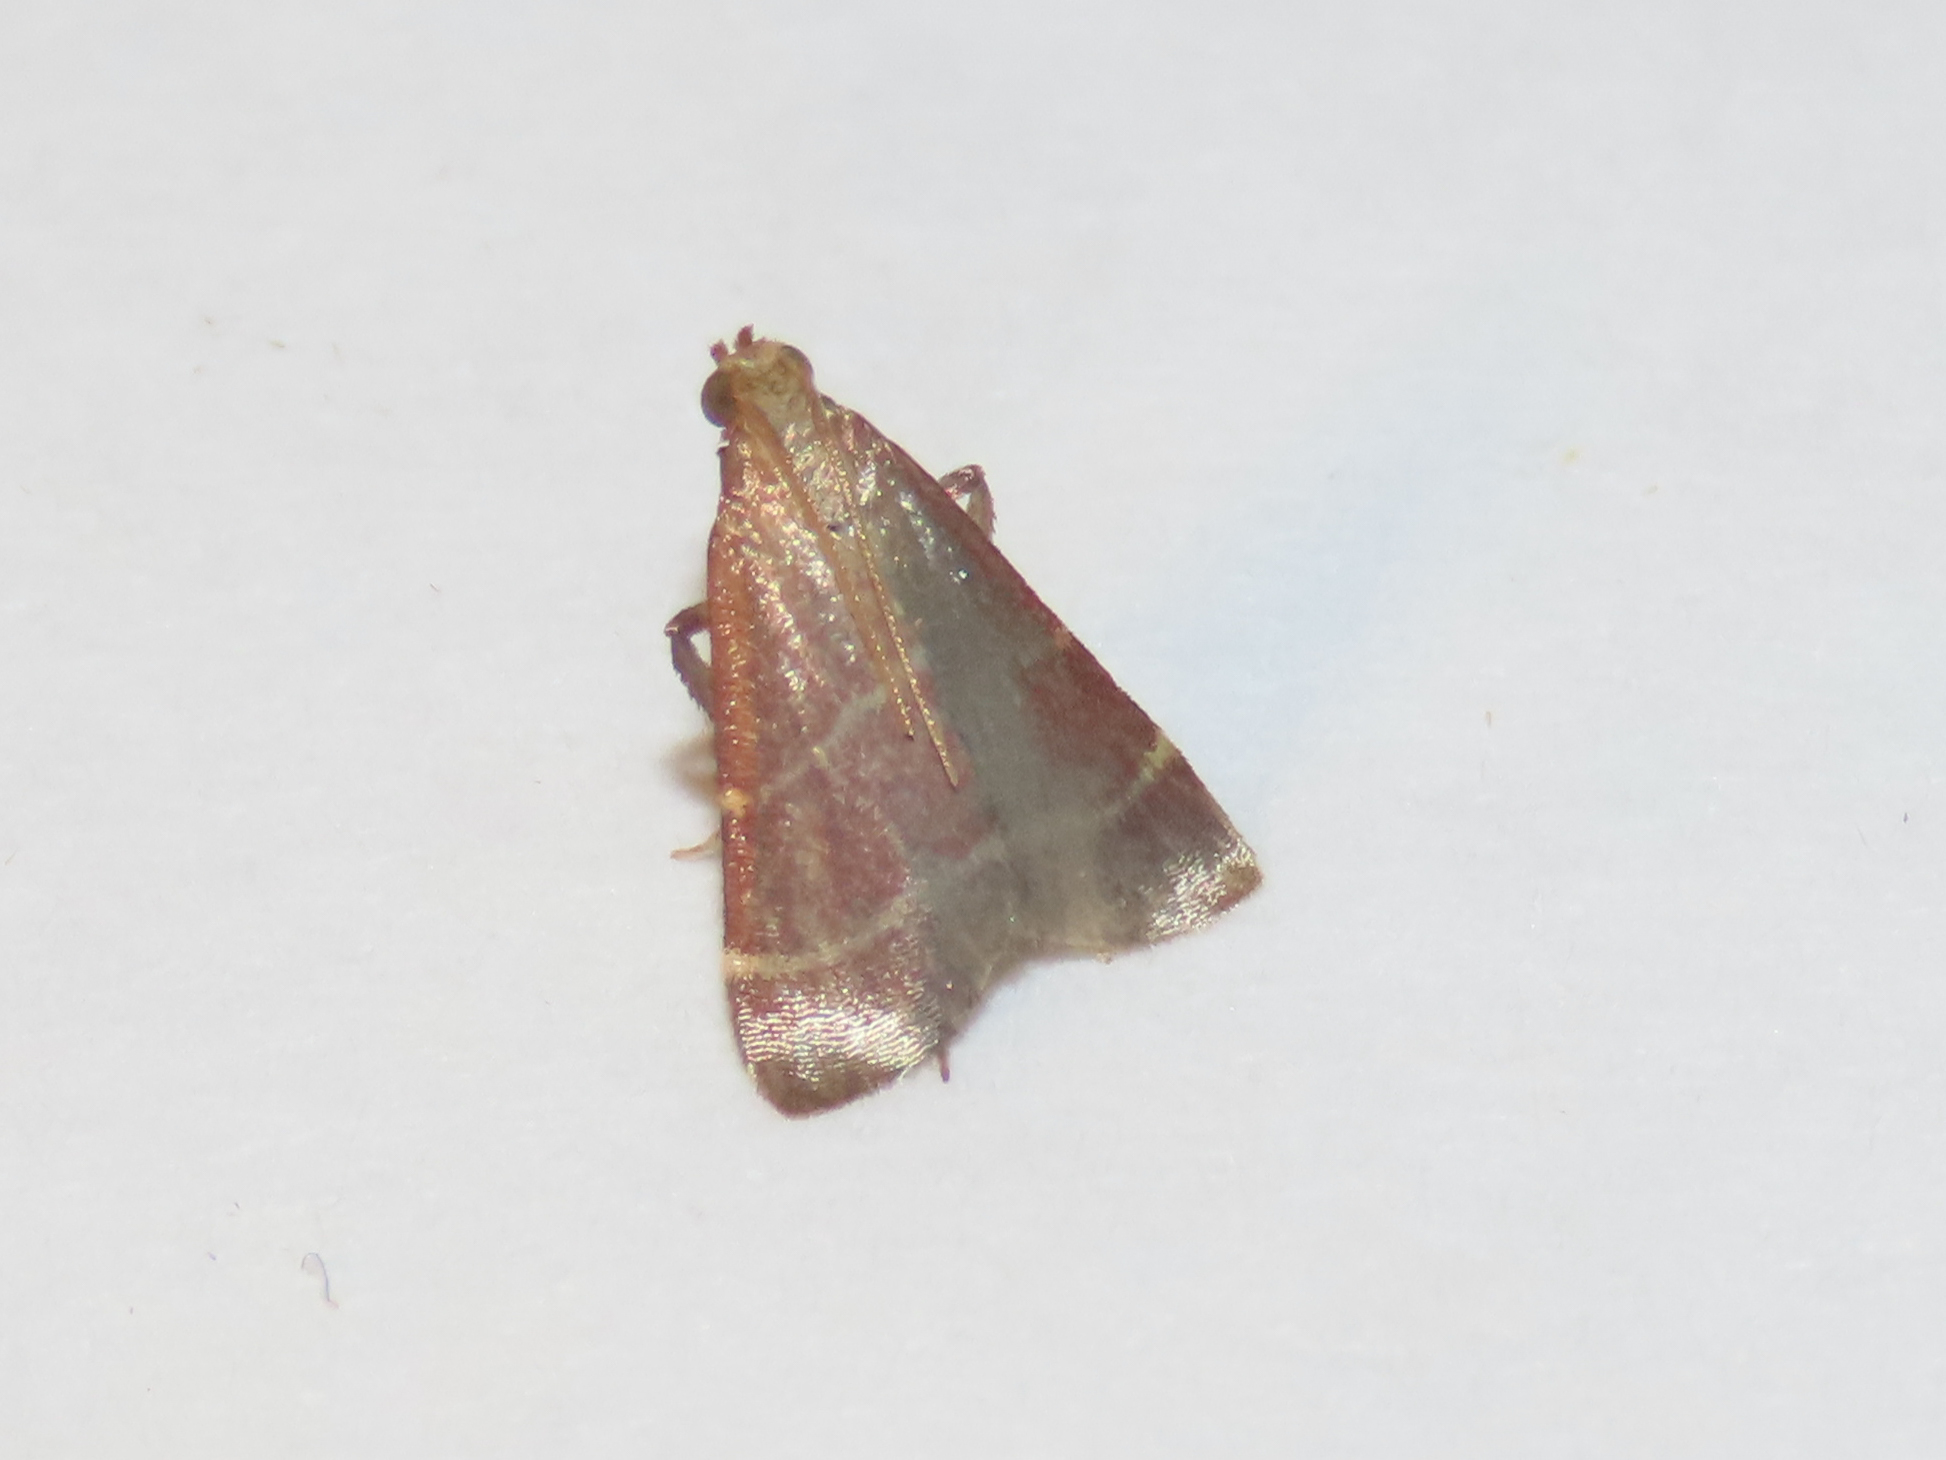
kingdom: Animalia
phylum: Arthropoda
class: Insecta
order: Lepidoptera
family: Pyralidae
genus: Arta
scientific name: Arta statalis
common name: Posturing arta moth
